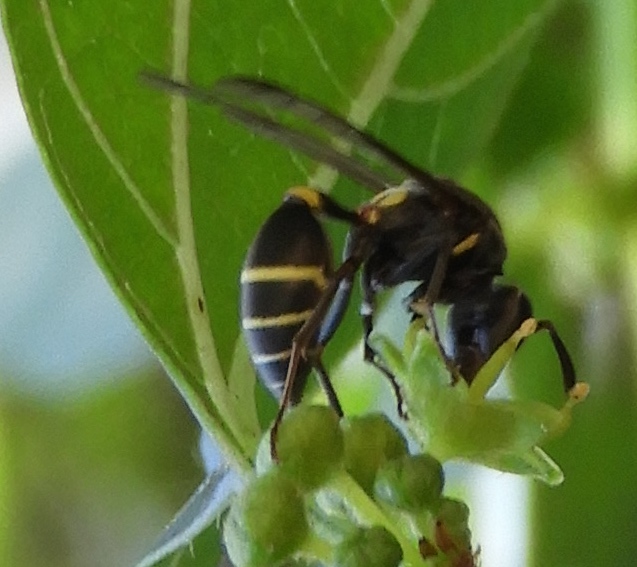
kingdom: Animalia
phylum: Arthropoda
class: Insecta
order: Hymenoptera
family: Vespidae
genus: Myrapetra
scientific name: Myrapetra
